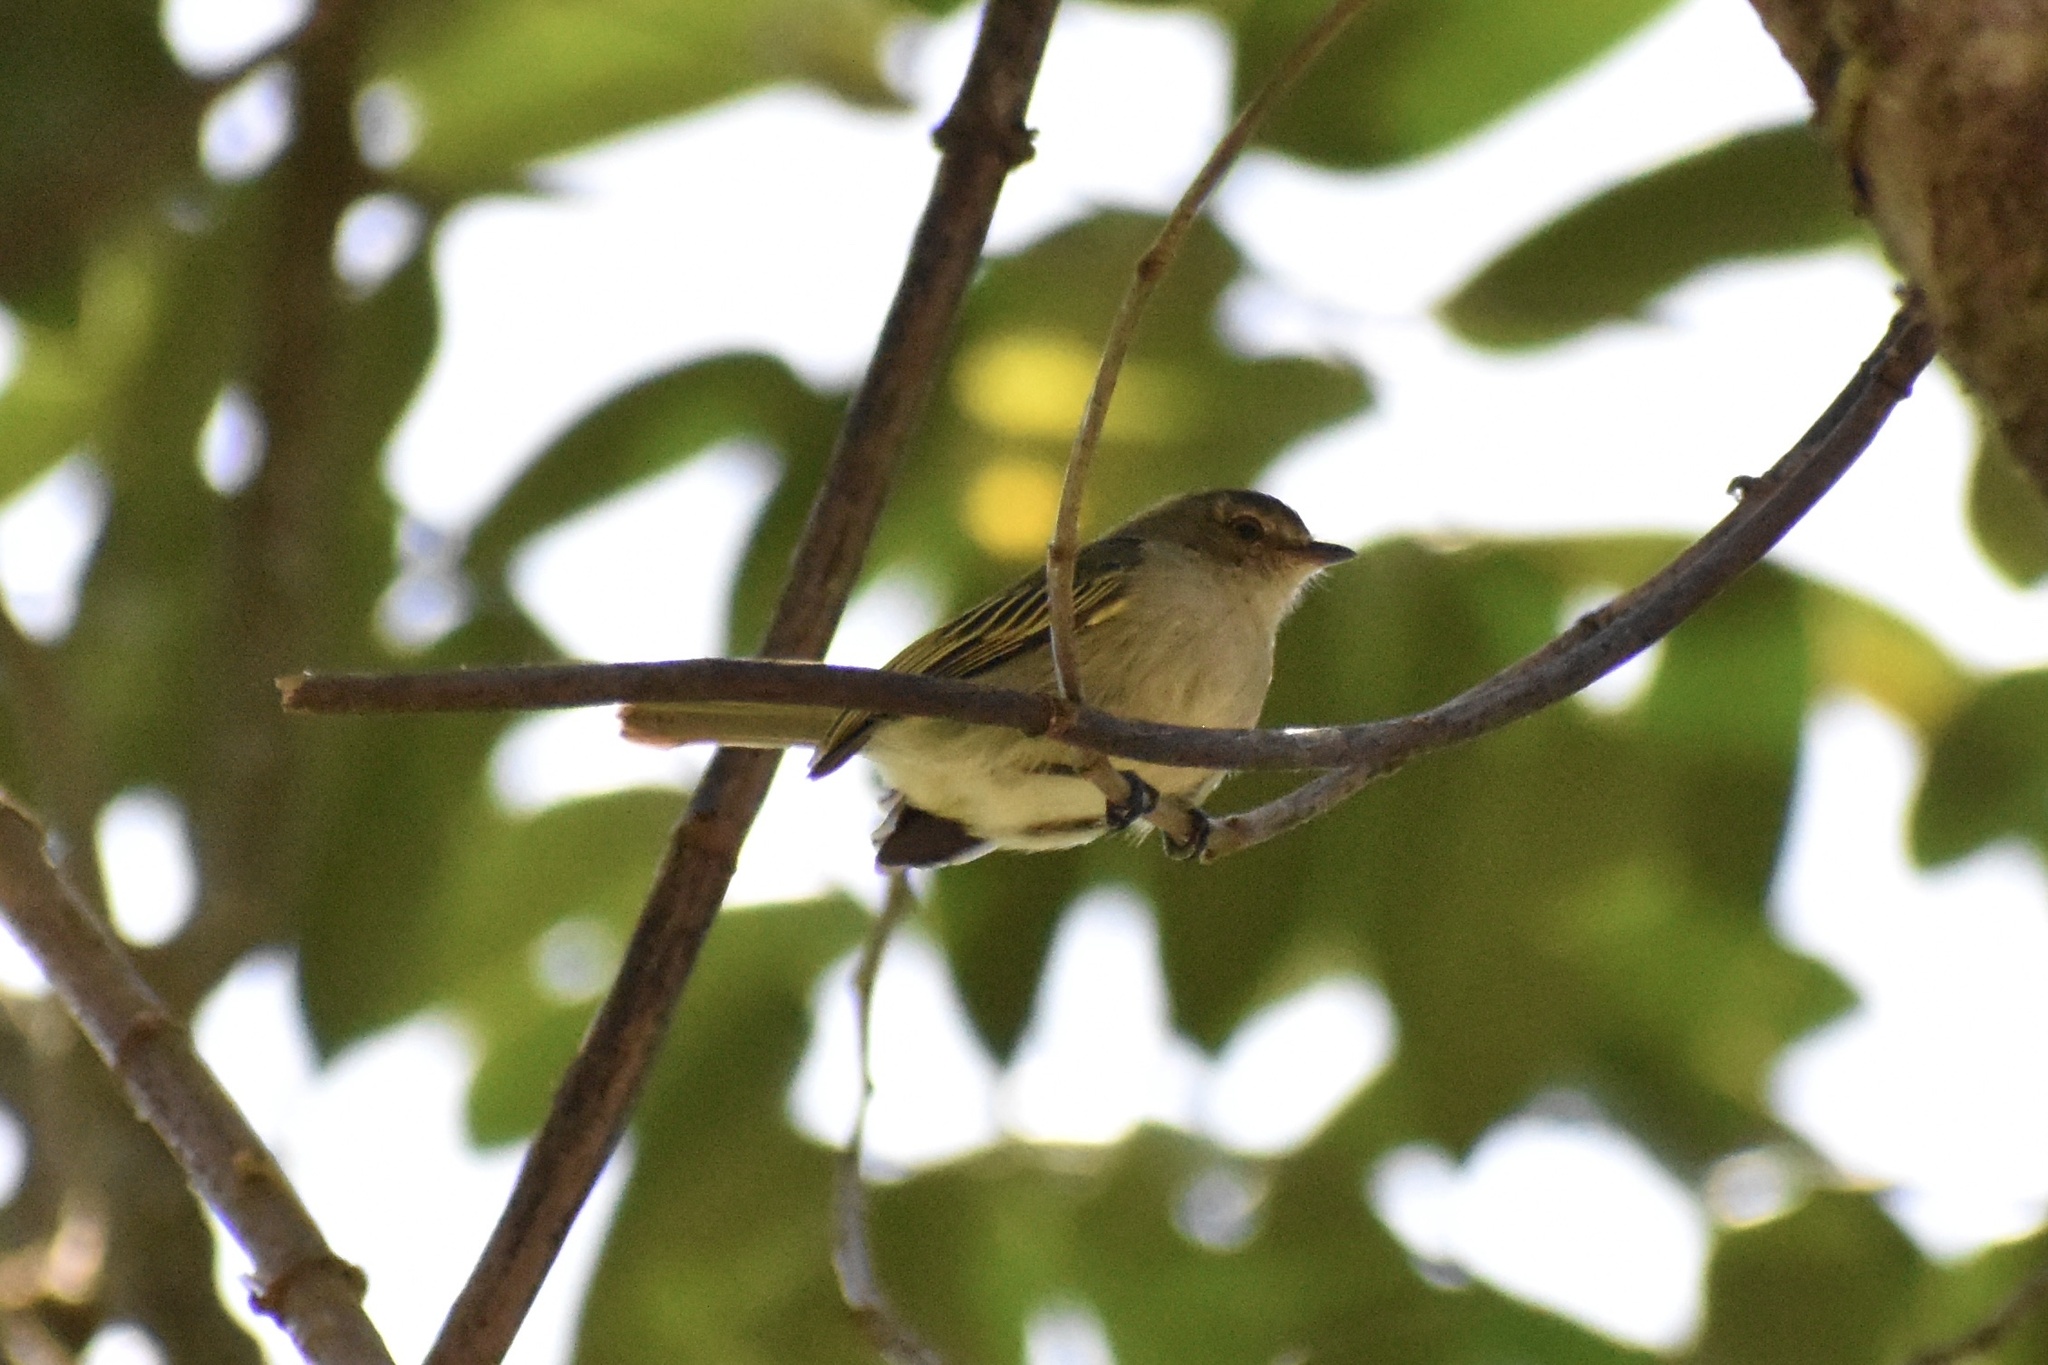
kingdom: Animalia
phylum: Chordata
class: Aves
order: Passeriformes
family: Tyrannidae
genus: Zimmerius
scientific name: Zimmerius vilissimus
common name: Paltry tyrannulet
